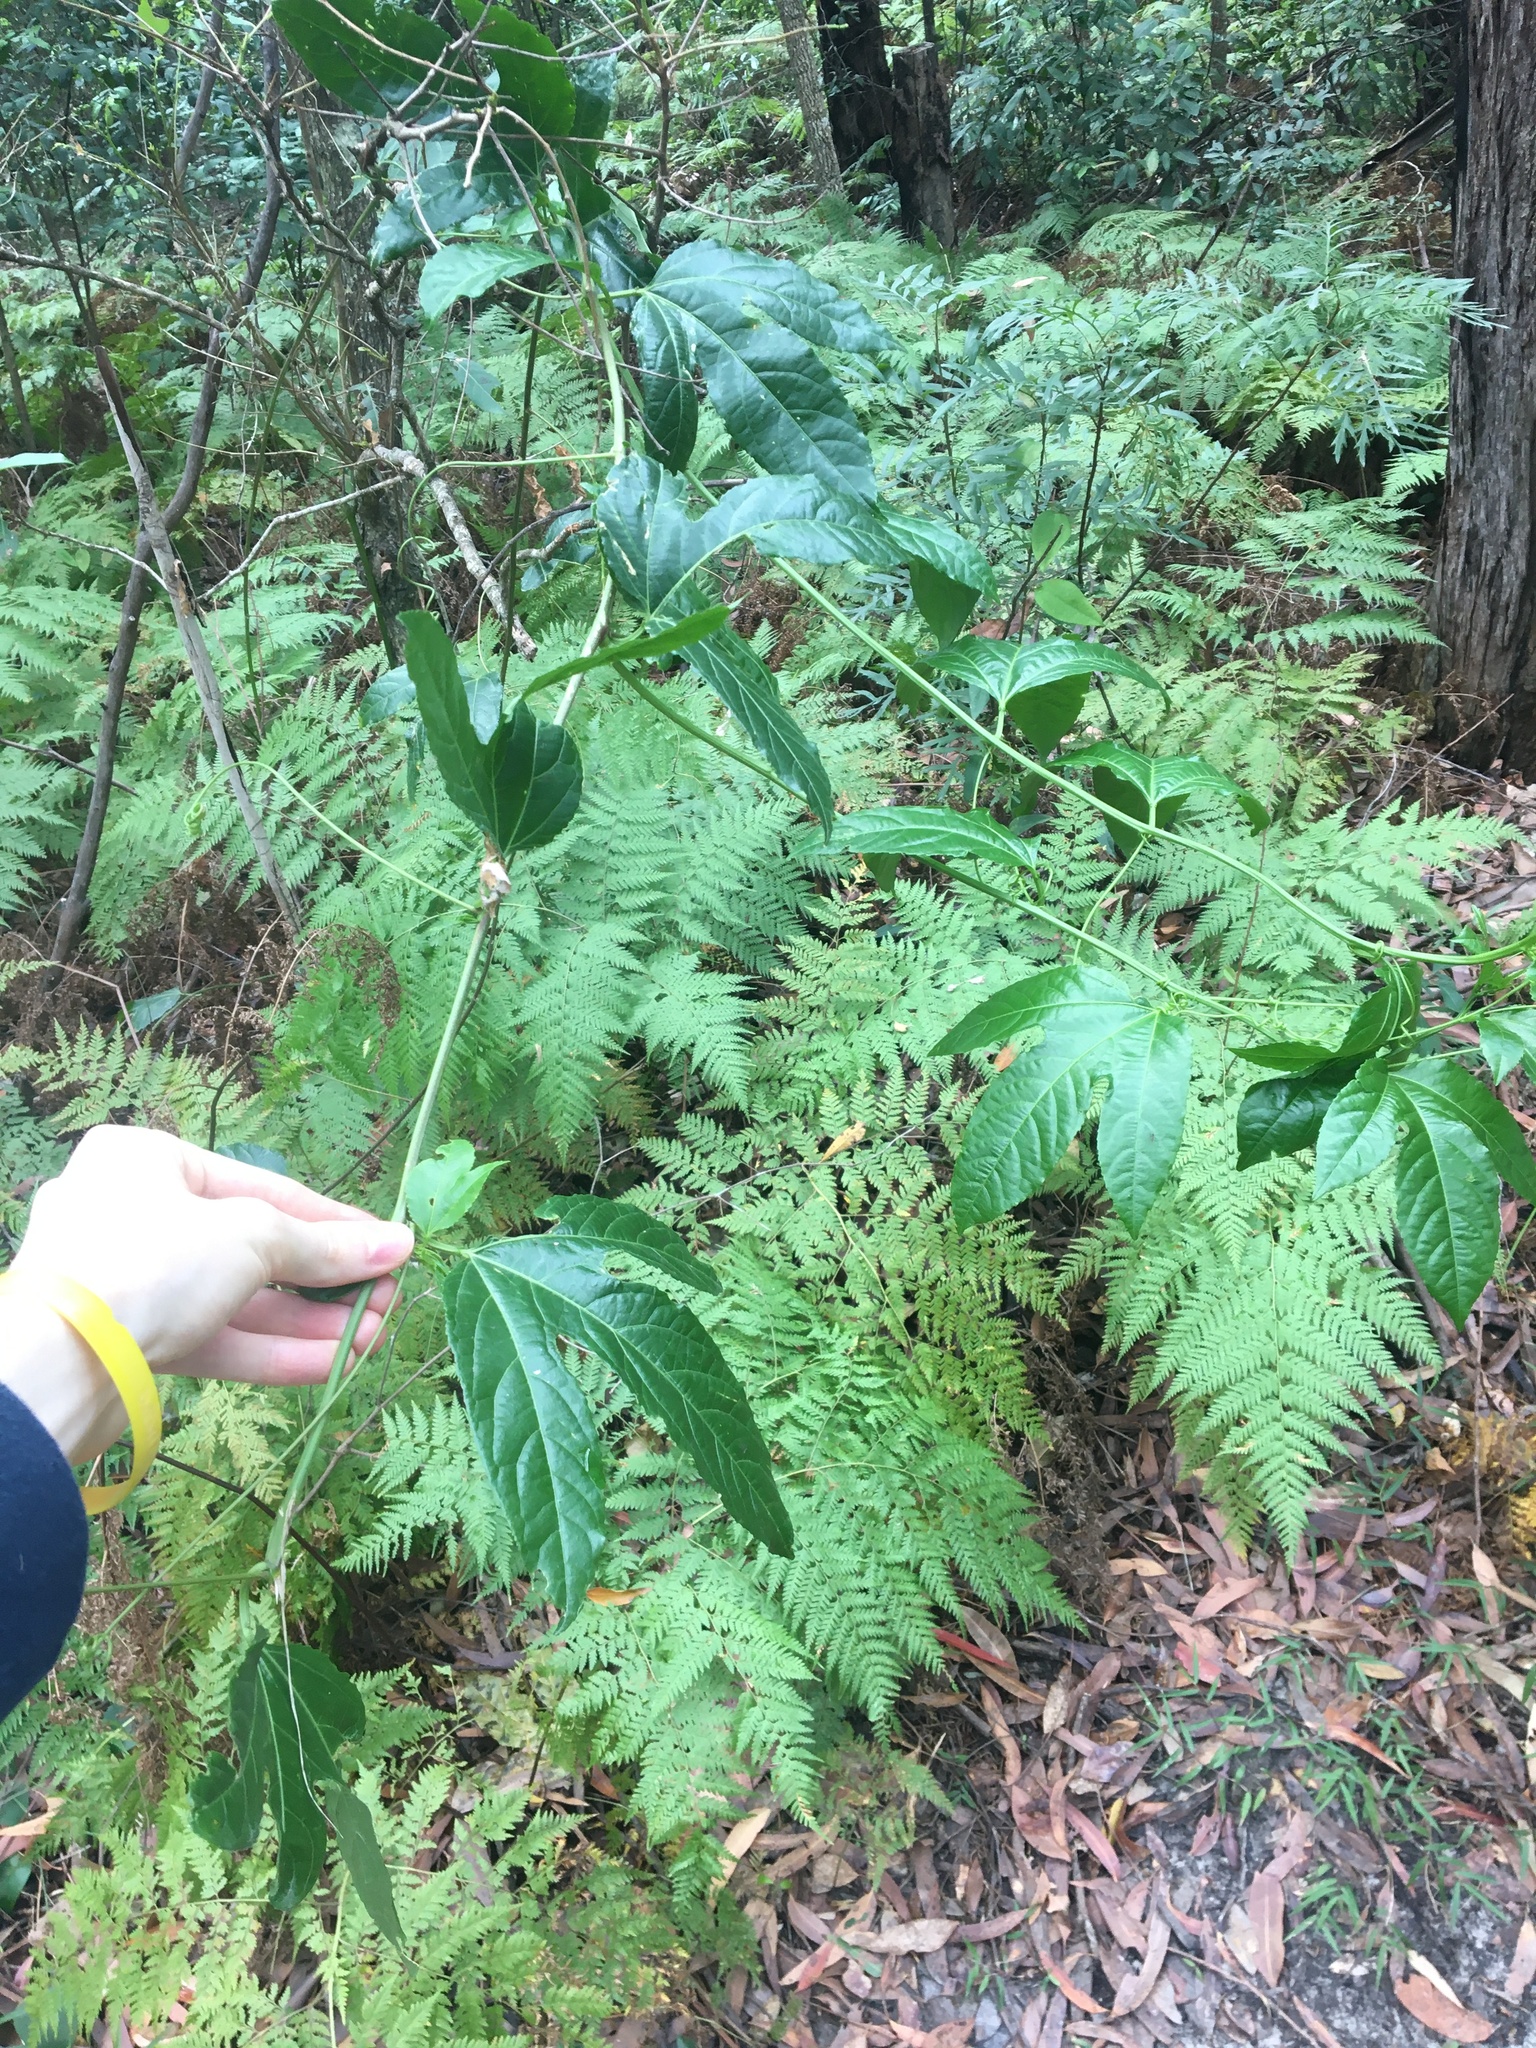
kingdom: Plantae
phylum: Tracheophyta
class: Magnoliopsida
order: Malpighiales
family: Passifloraceae
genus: Passiflora
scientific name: Passiflora edulis
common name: Purple granadilla
